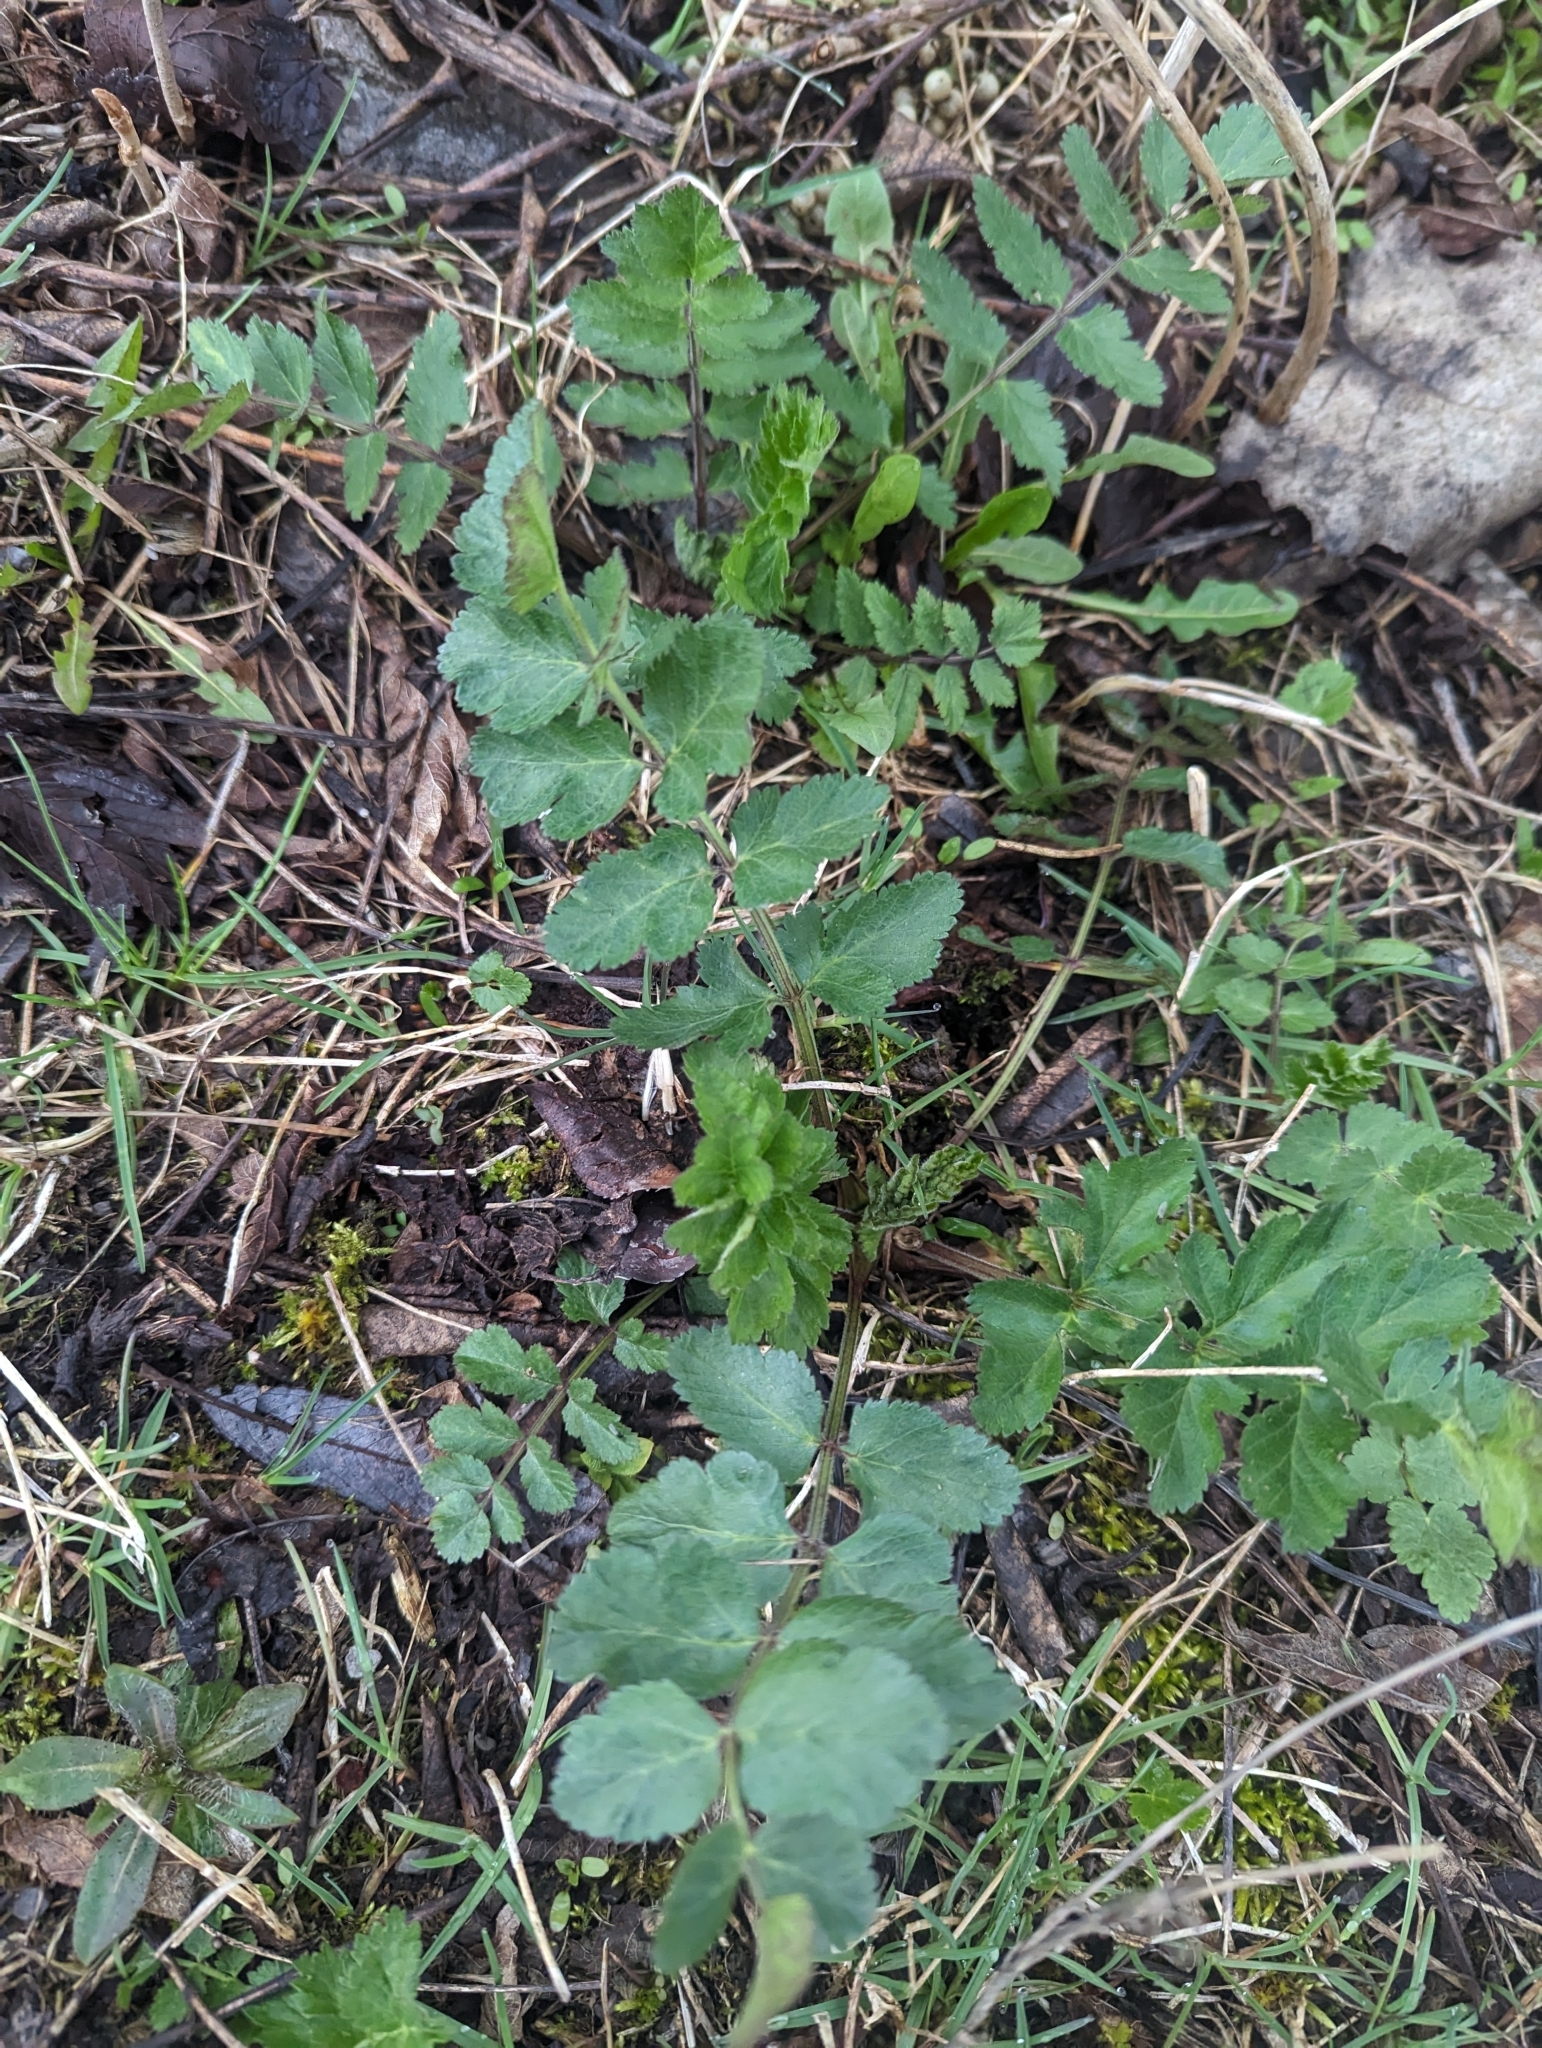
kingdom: Plantae
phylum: Tracheophyta
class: Magnoliopsida
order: Apiales
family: Apiaceae
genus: Pastinaca
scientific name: Pastinaca sativa
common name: Wild parsnip
